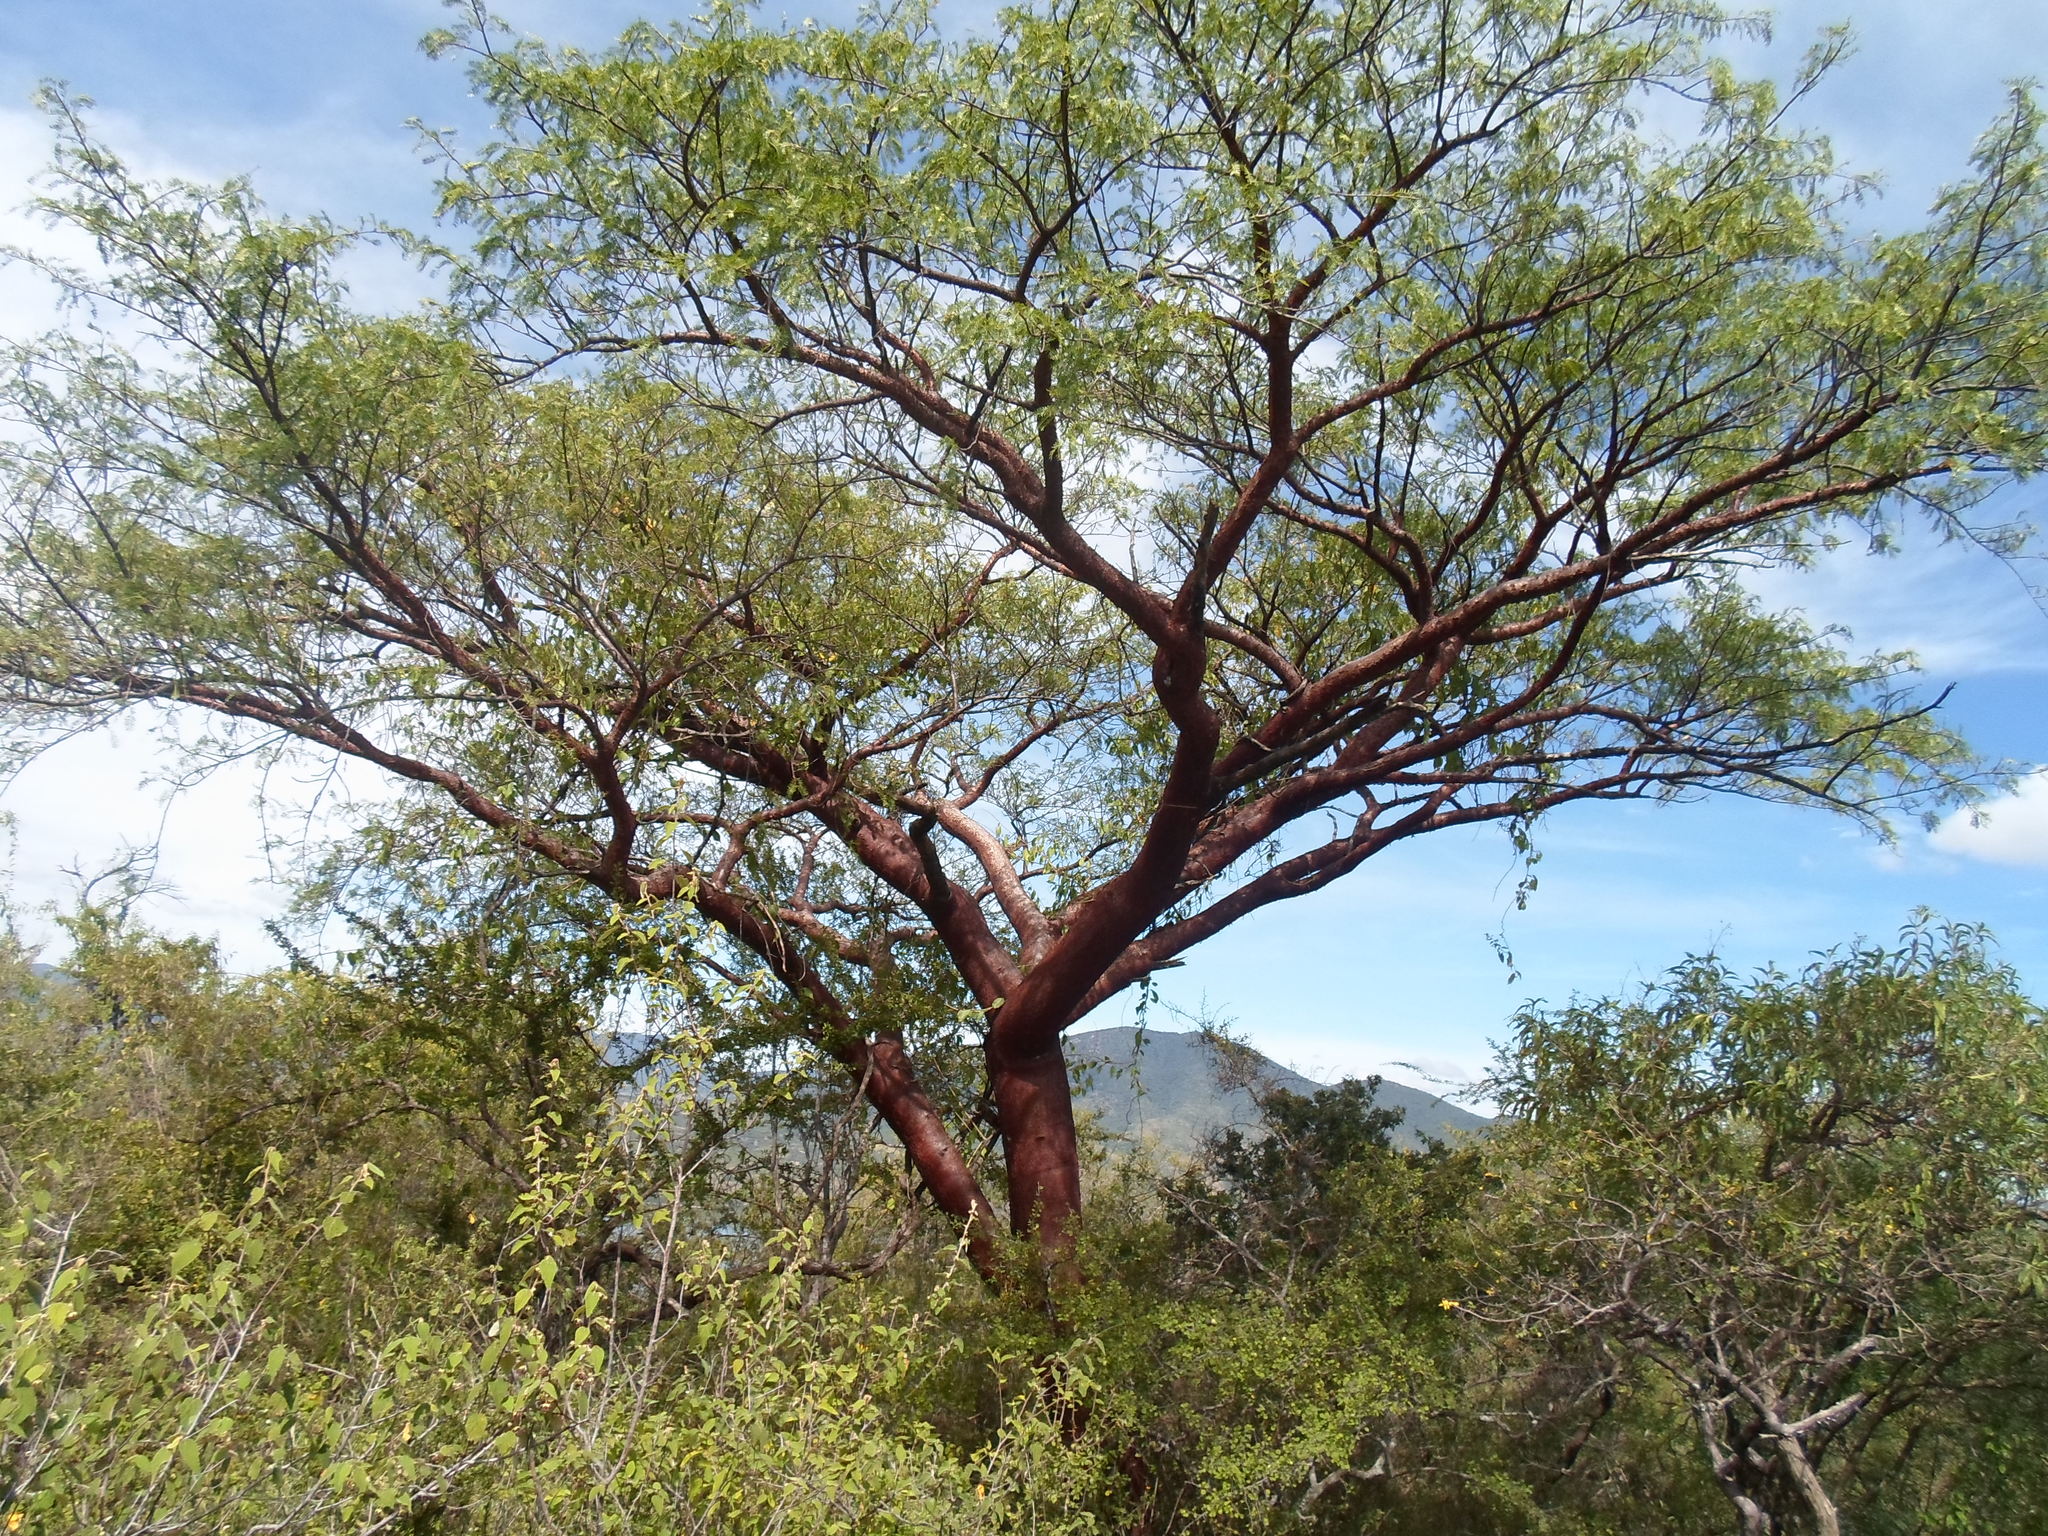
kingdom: Plantae
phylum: Tracheophyta
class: Magnoliopsida
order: Sapindales
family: Burseraceae
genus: Bursera
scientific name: Bursera morelensis
